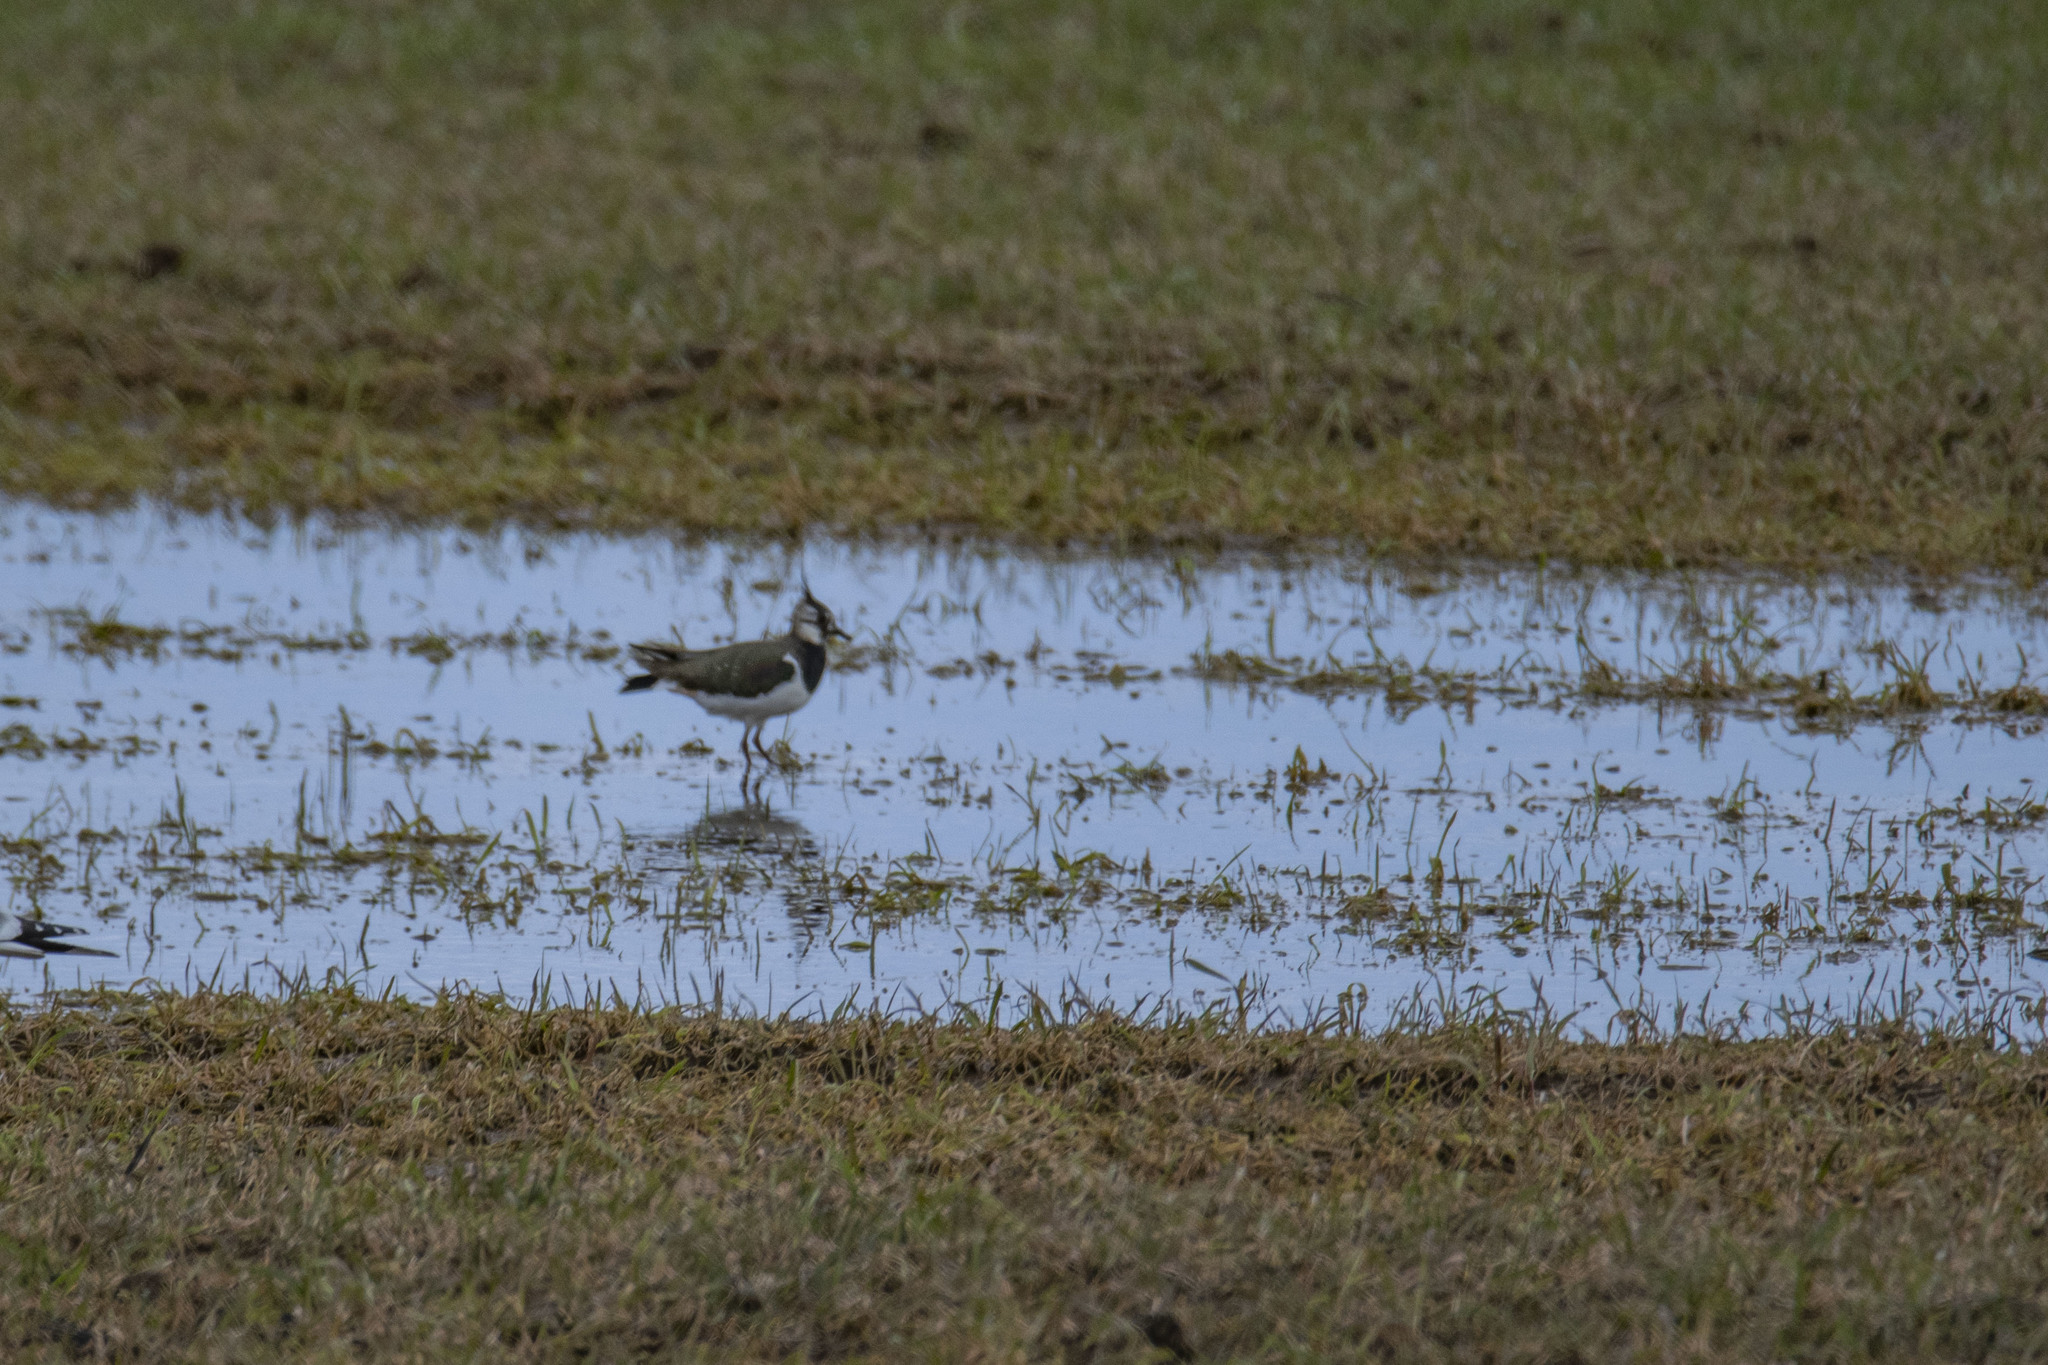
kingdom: Animalia
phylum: Chordata
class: Aves
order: Charadriiformes
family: Charadriidae
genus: Vanellus
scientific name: Vanellus vanellus
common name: Northern lapwing
